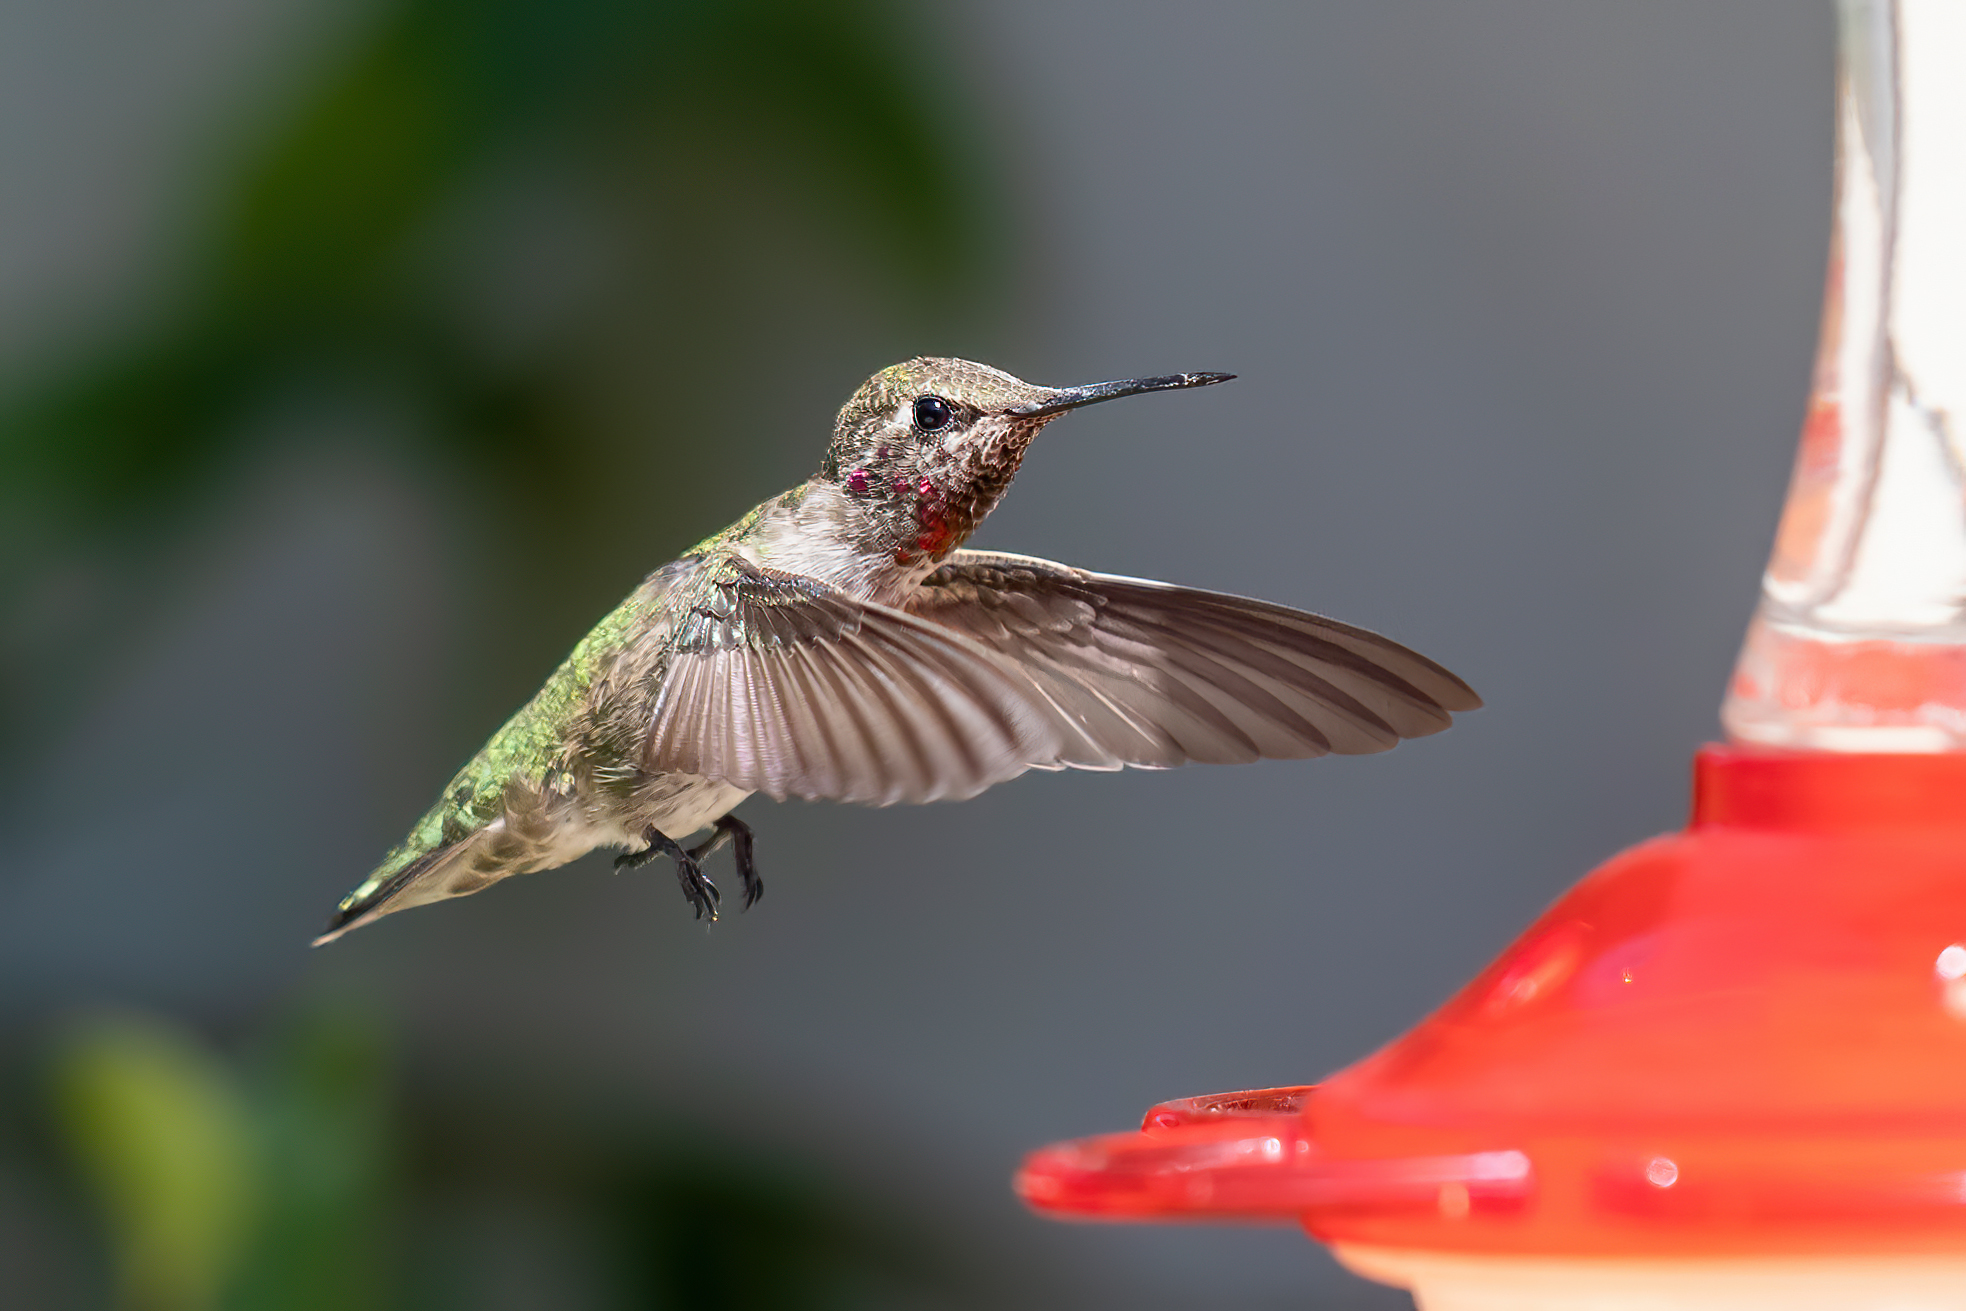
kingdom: Animalia
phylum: Chordata
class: Aves
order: Apodiformes
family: Trochilidae
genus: Calypte
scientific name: Calypte anna
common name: Anna's hummingbird
